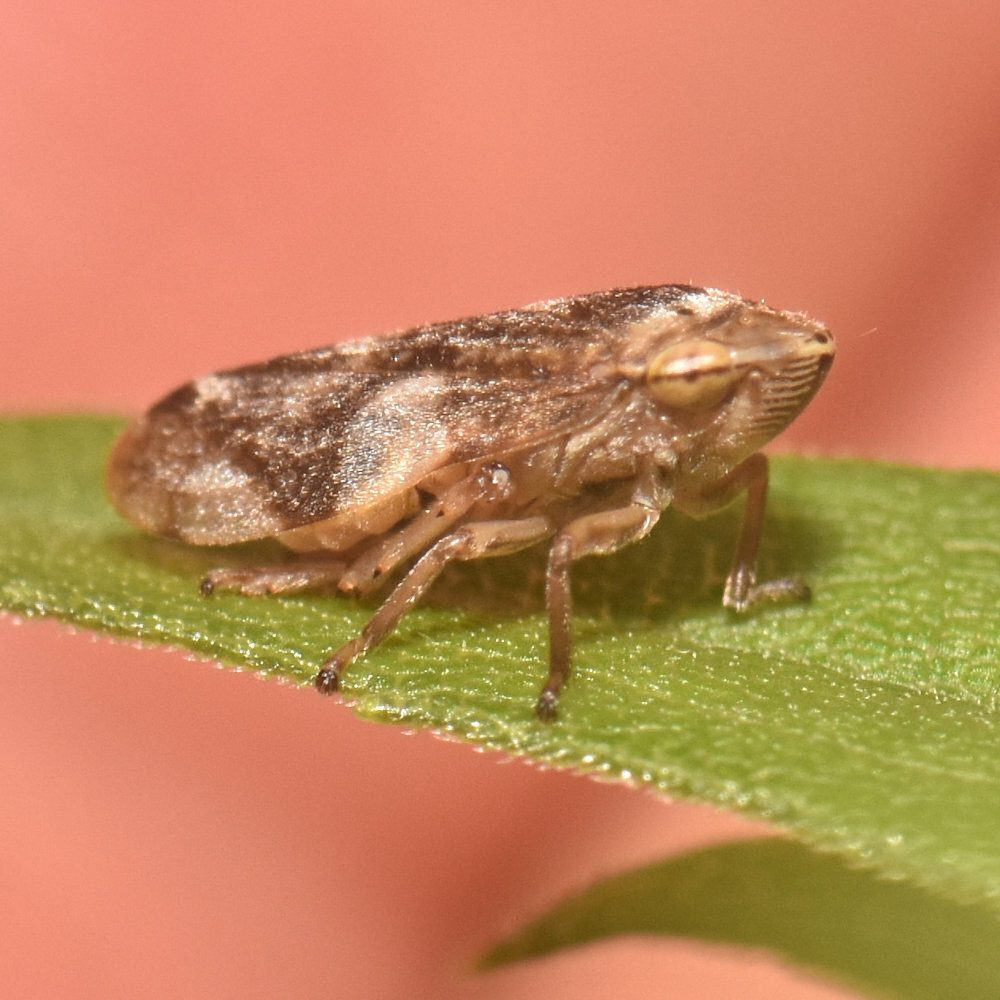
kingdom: Animalia
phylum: Arthropoda
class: Insecta
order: Hemiptera
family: Aphrophoridae
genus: Philaenus
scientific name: Philaenus spumarius
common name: Meadow spittlebug
